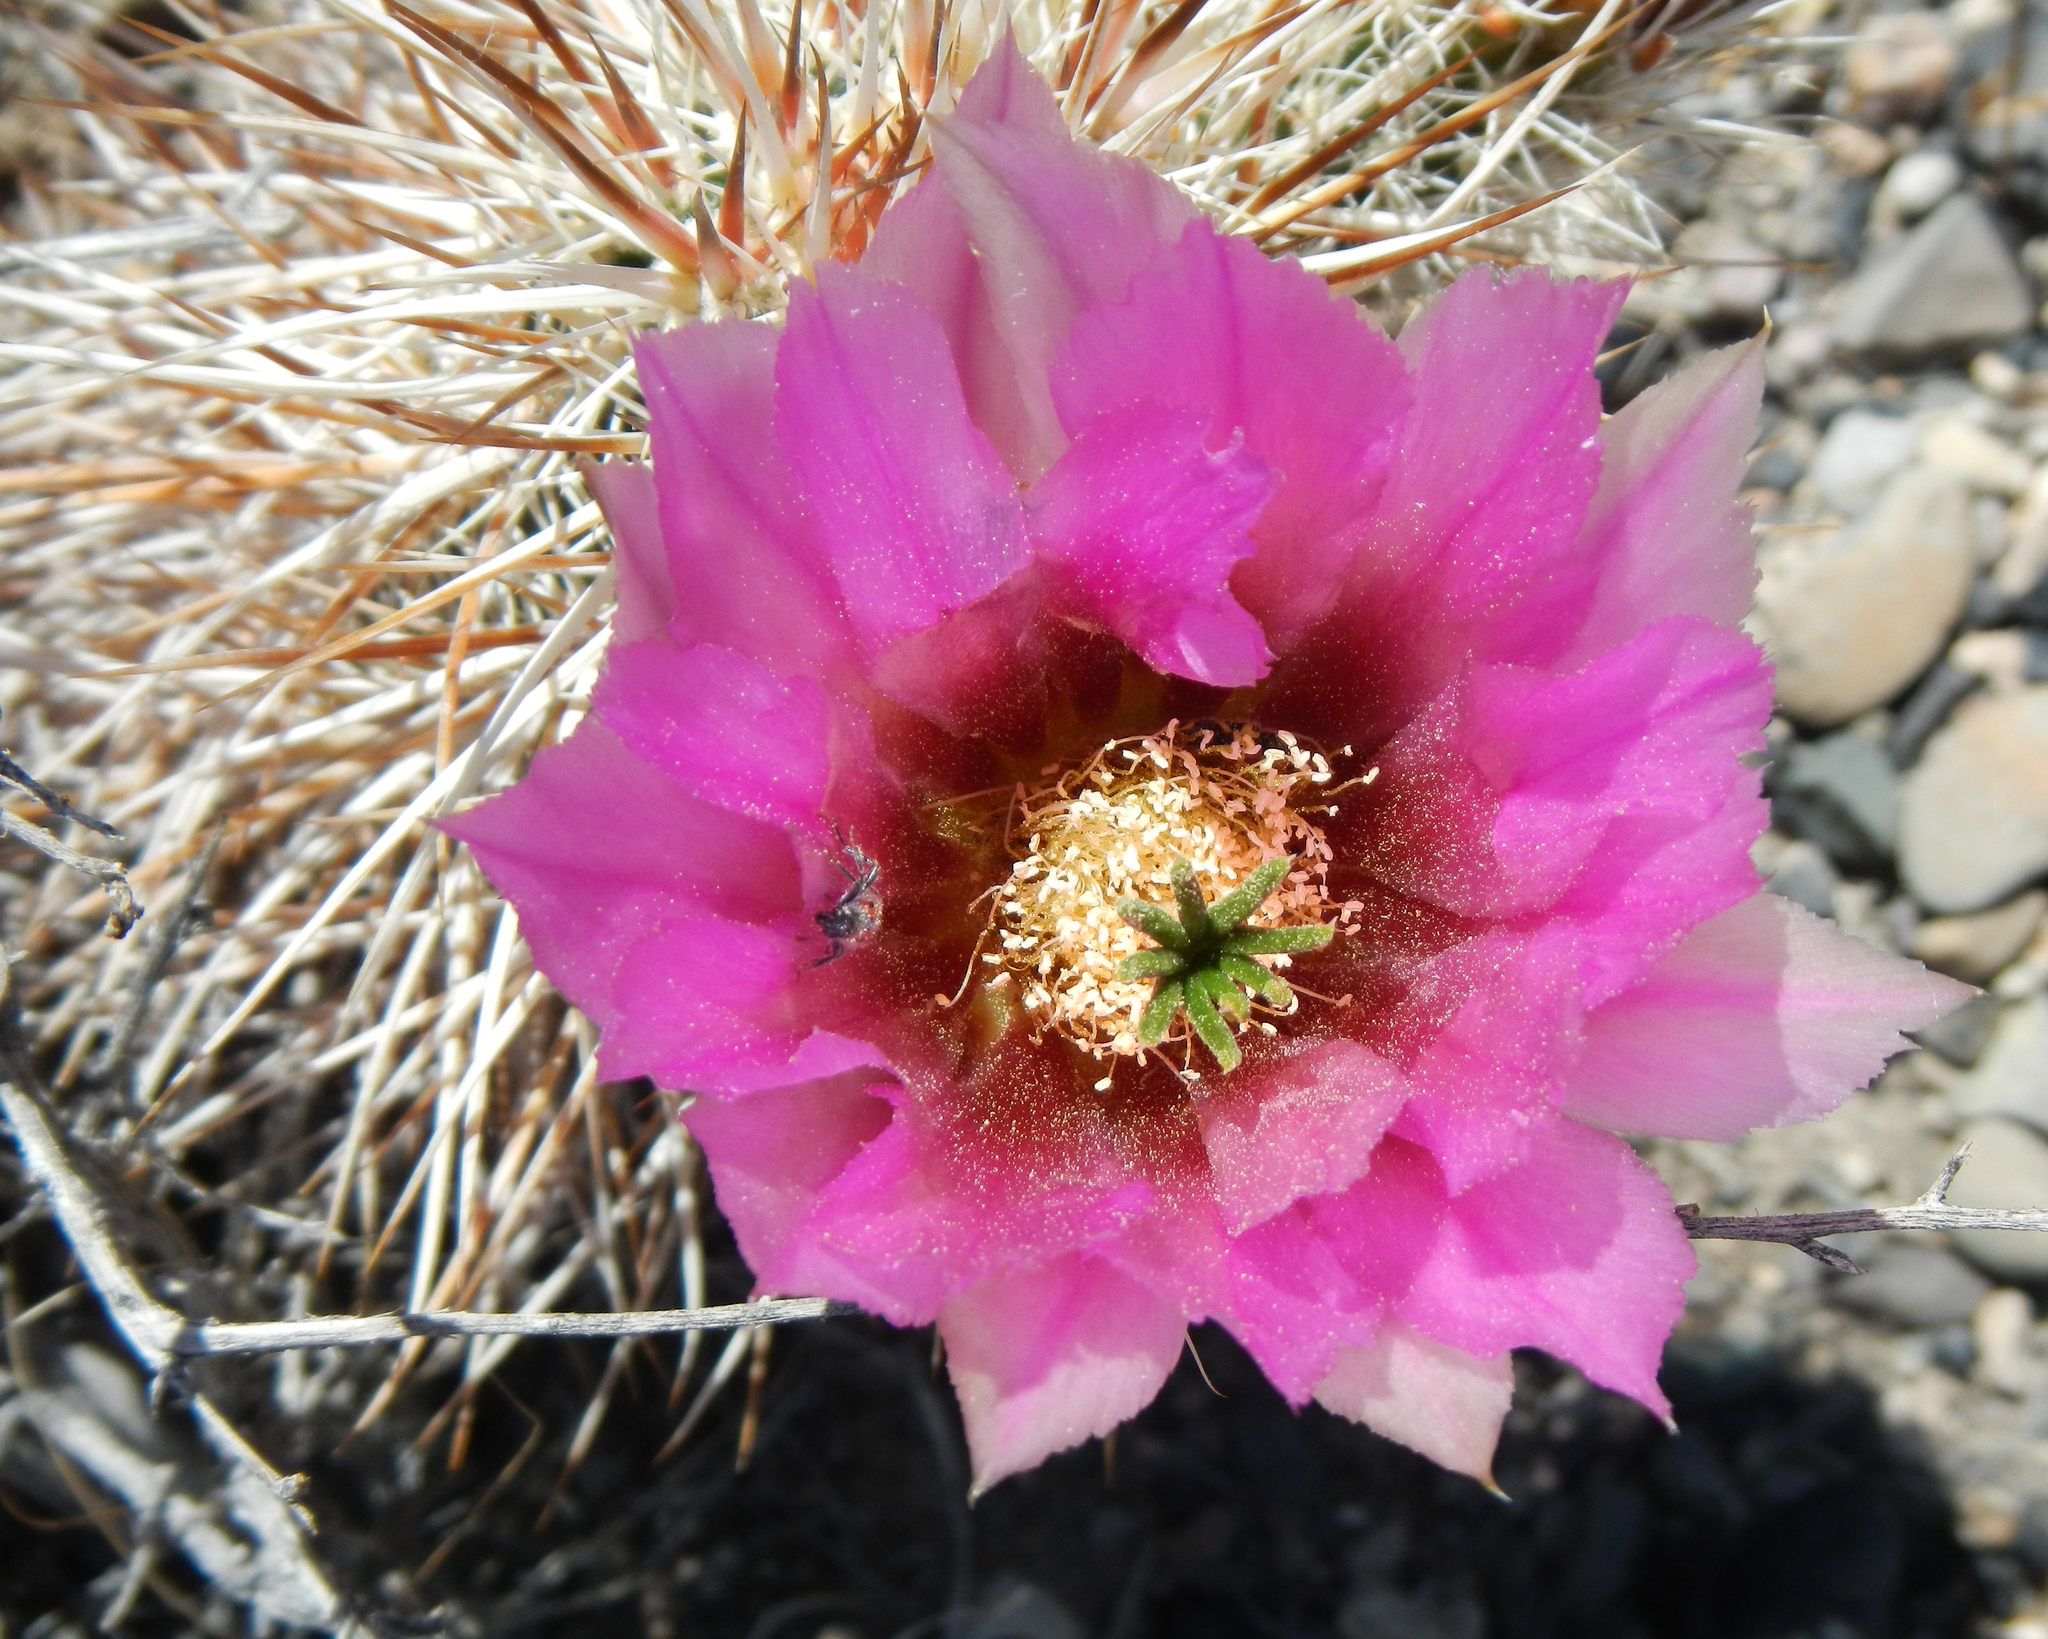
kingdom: Plantae
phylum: Tracheophyta
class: Magnoliopsida
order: Caryophyllales
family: Cactaceae
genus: Echinocereus
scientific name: Echinocereus engelmannii
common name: Engelmann's hedgehog cactus
